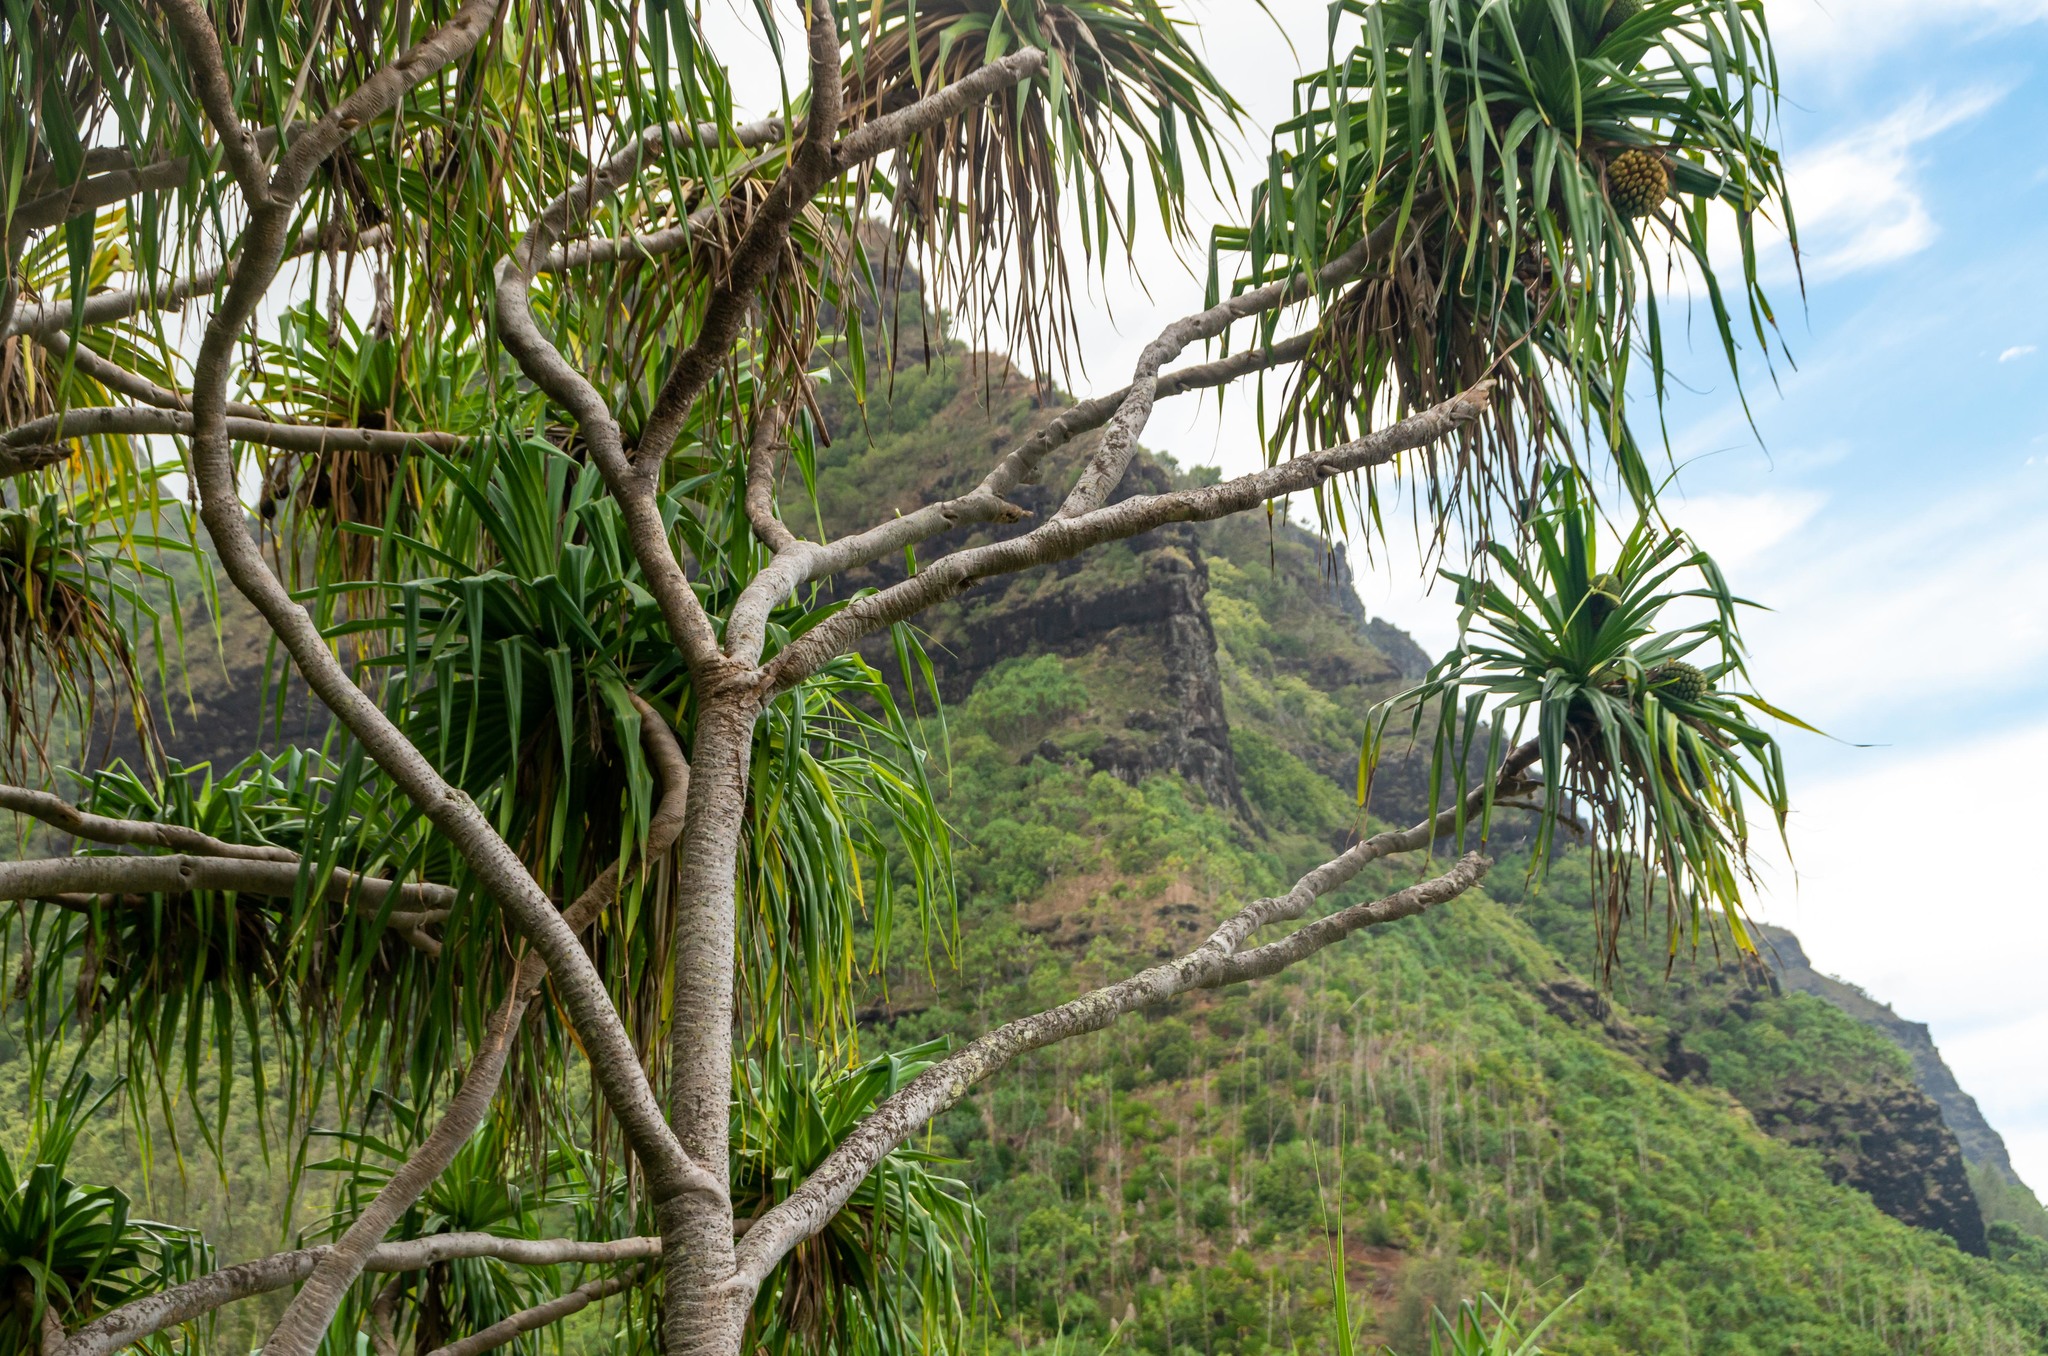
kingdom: Plantae
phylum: Tracheophyta
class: Liliopsida
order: Pandanales
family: Pandanaceae
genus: Pandanus
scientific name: Pandanus tectorius
